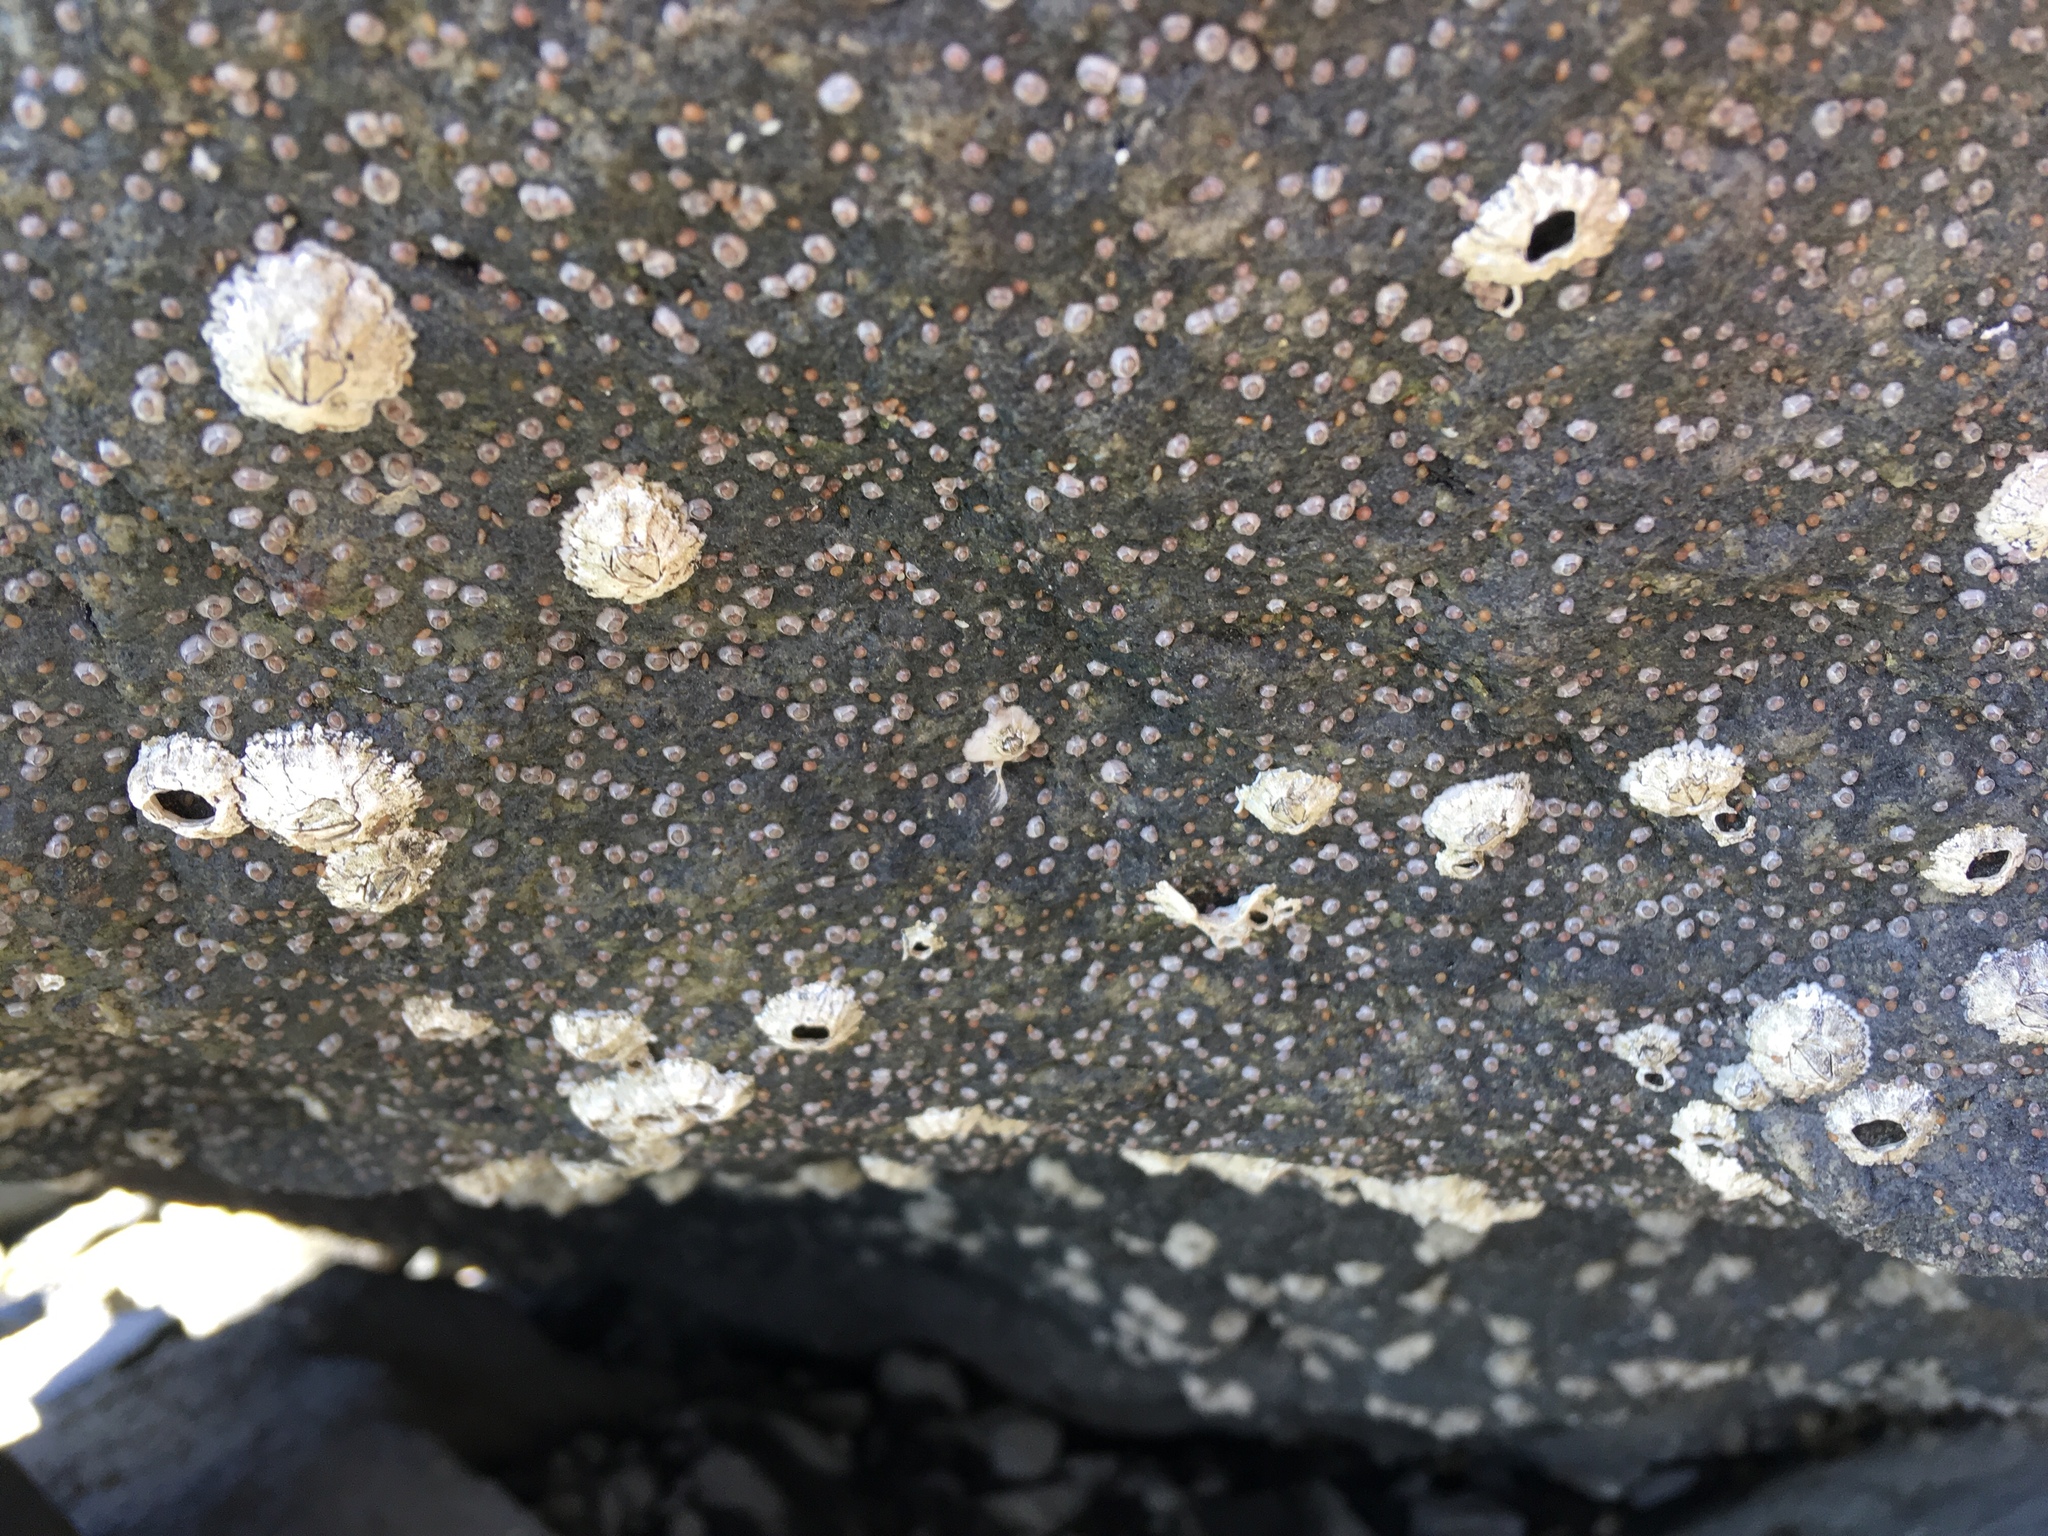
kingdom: Animalia
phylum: Arthropoda
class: Maxillopoda
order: Sessilia
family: Archaeobalanidae
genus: Semibalanus
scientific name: Semibalanus balanoides
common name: Acorn barnacle
